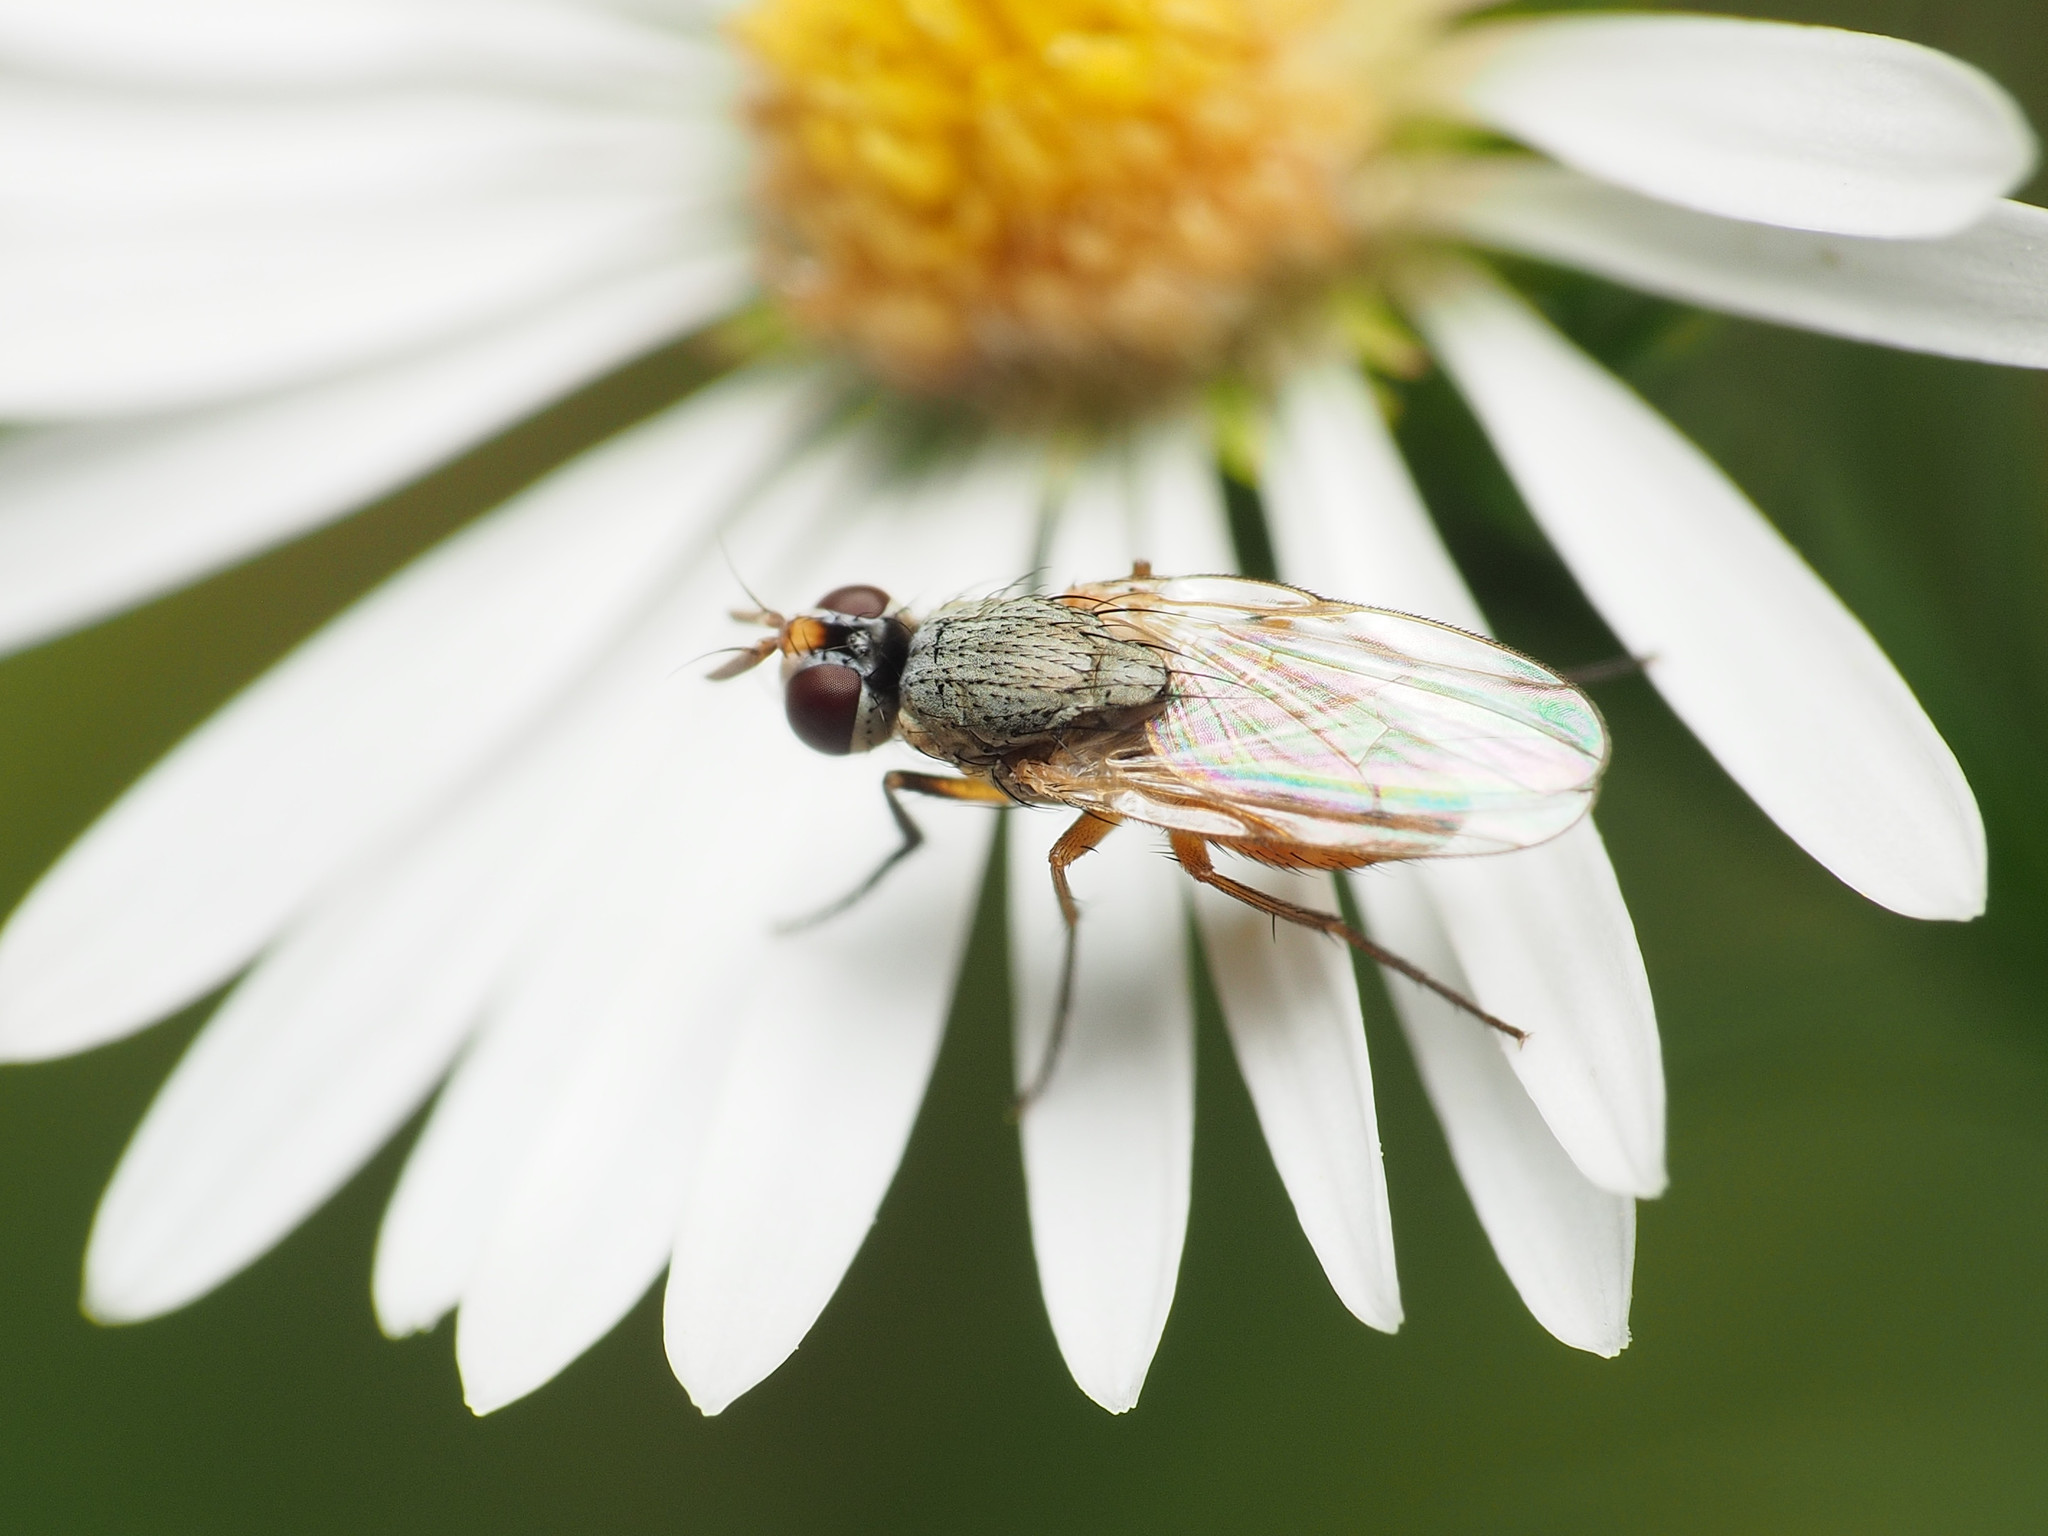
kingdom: Animalia
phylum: Arthropoda
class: Insecta
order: Diptera
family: Muscidae
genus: Atherigona
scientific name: Atherigona reversura
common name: Bermudagrass stem maggot
